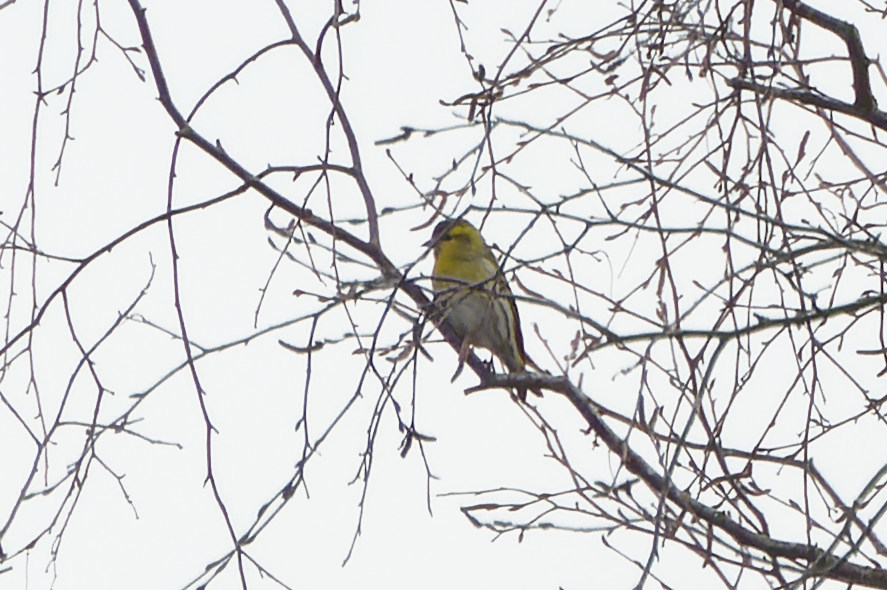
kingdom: Animalia
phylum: Chordata
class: Aves
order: Passeriformes
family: Fringillidae
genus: Spinus
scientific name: Spinus spinus
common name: Eurasian siskin
